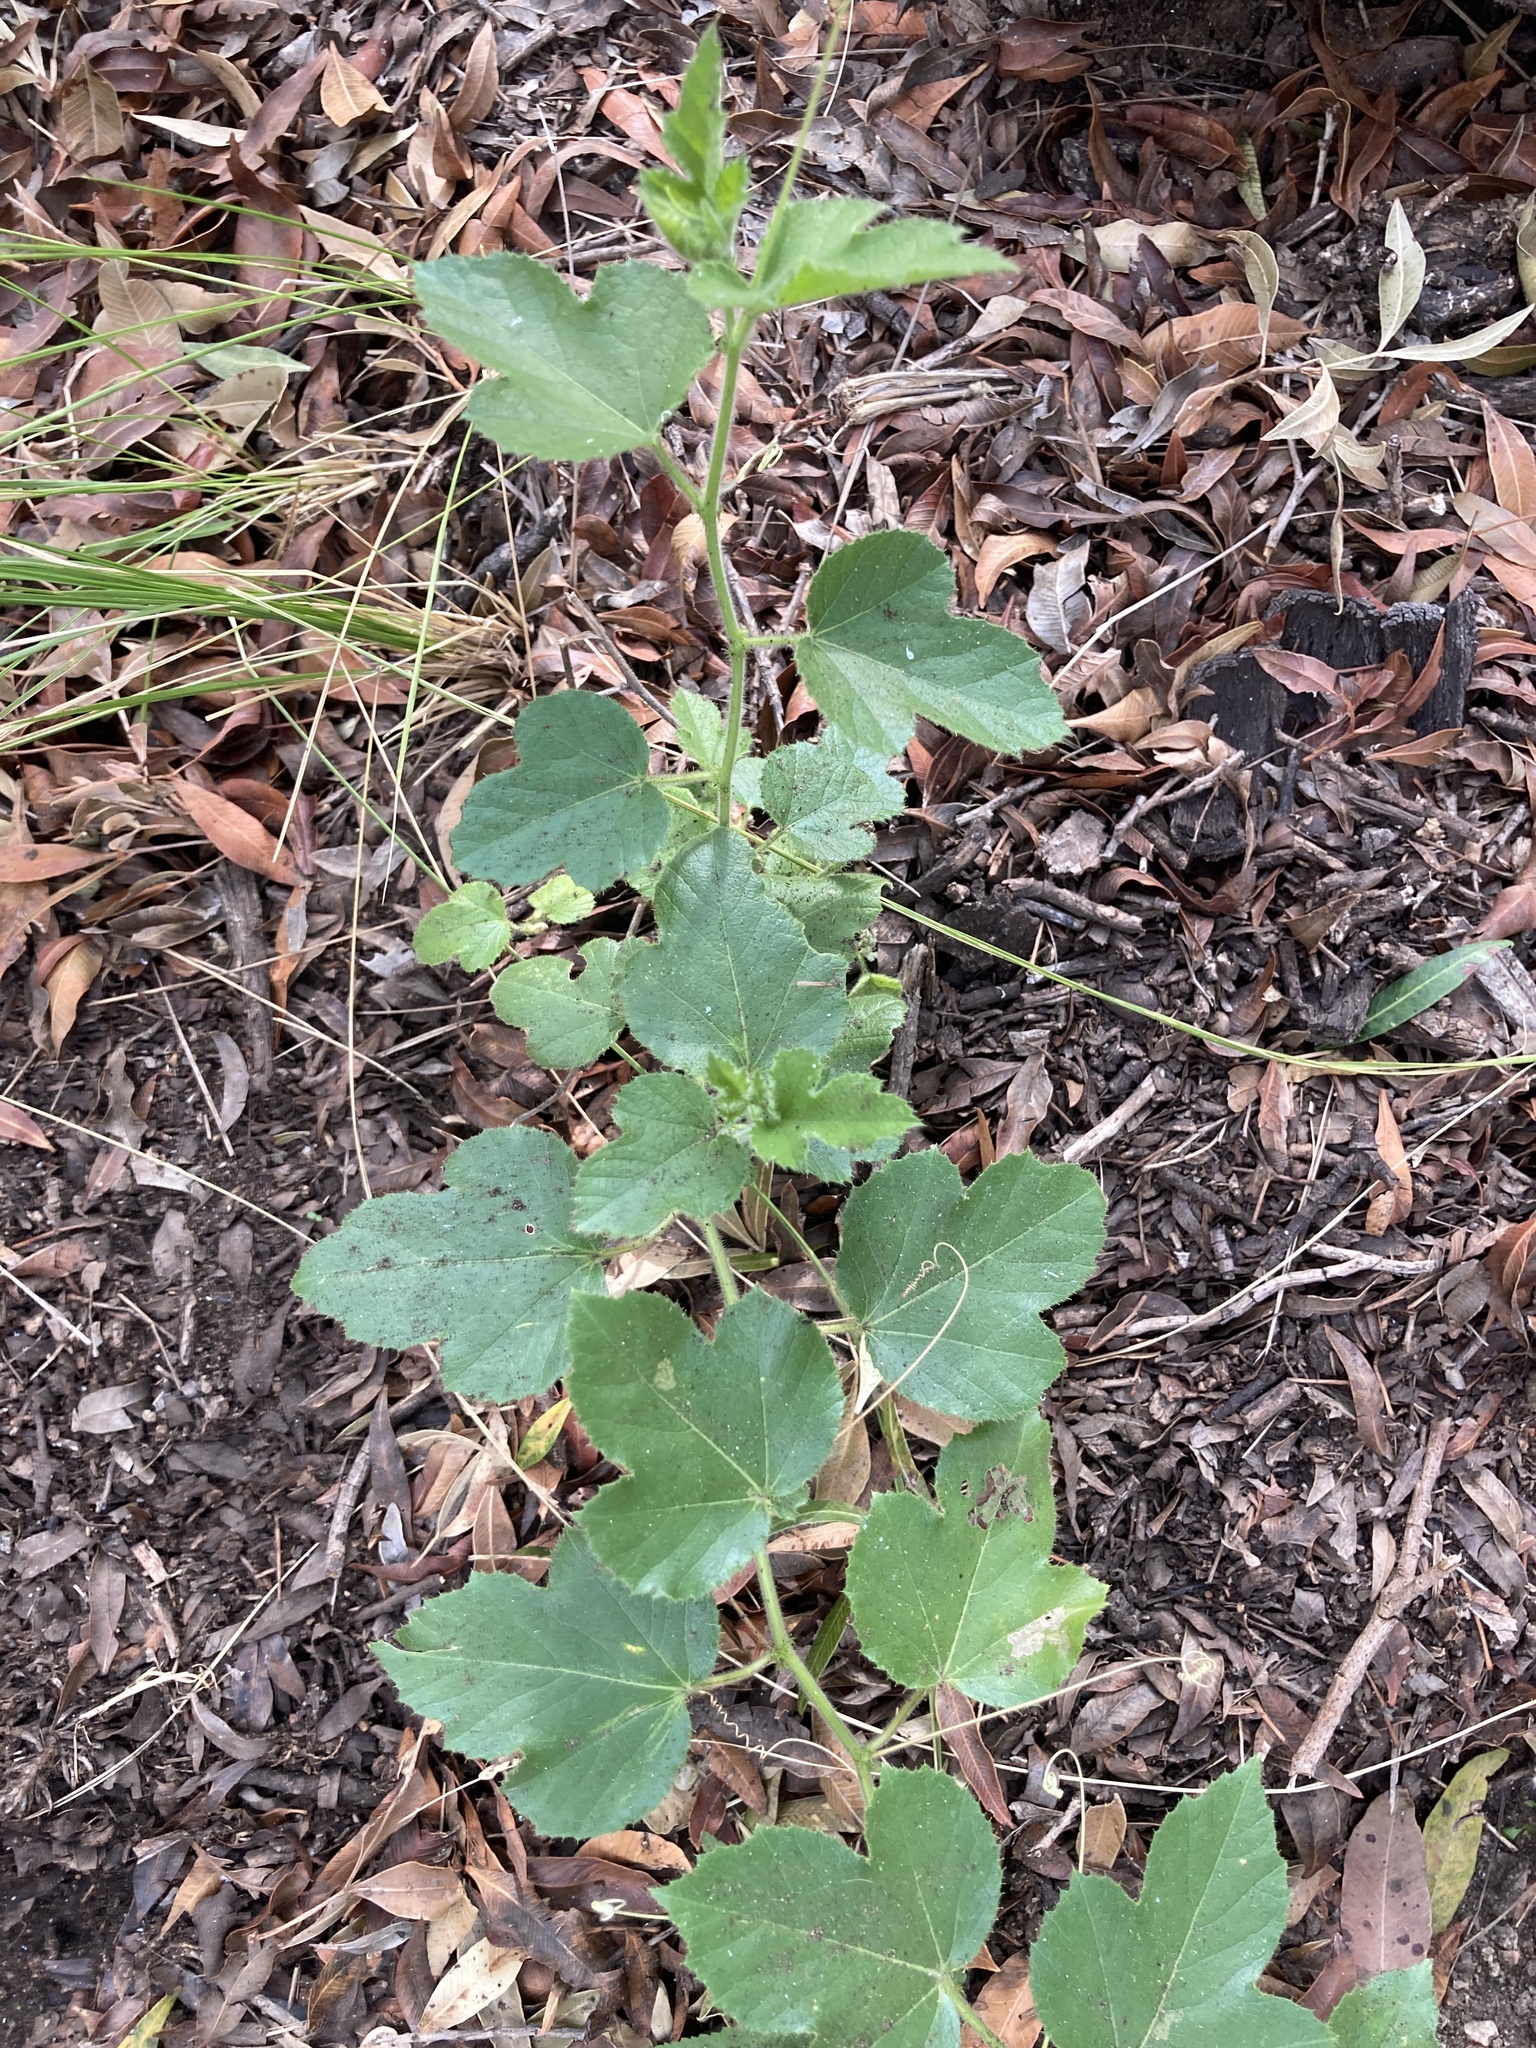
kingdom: Plantae
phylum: Tracheophyta
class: Magnoliopsida
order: Malpighiales
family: Passifloraceae
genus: Passiflora
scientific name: Passiflora foetida
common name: Fetid passionflower
